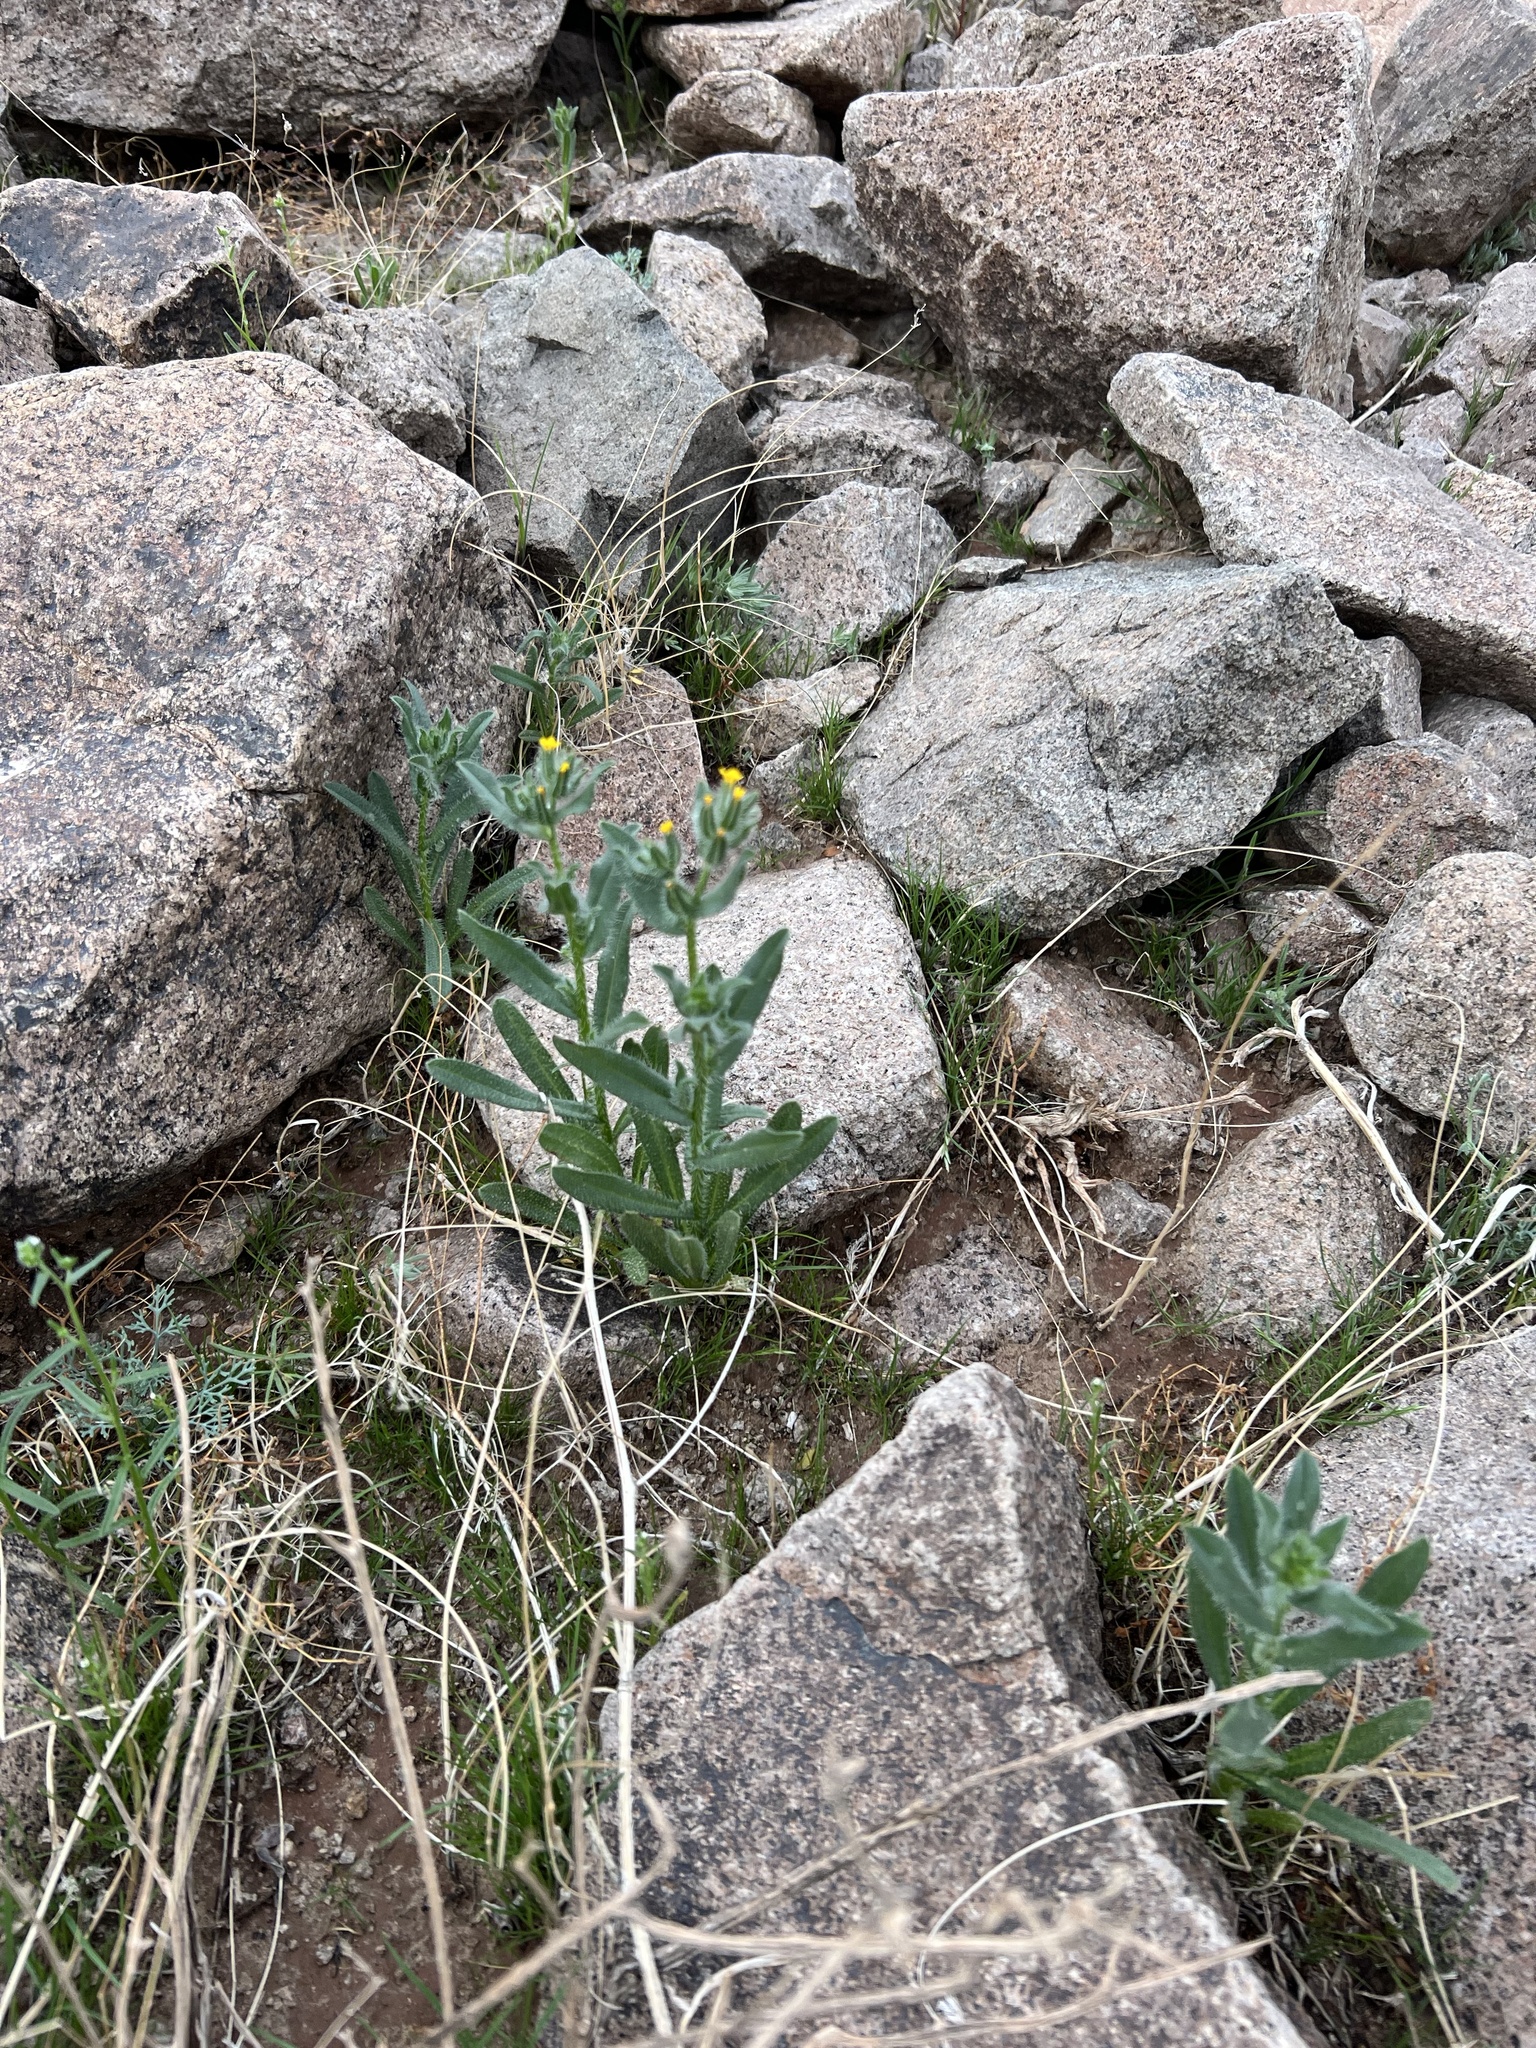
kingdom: Plantae
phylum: Tracheophyta
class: Magnoliopsida
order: Boraginales
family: Boraginaceae
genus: Amsinckia
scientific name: Amsinckia tessellata
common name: Tessellate fiddleneck
